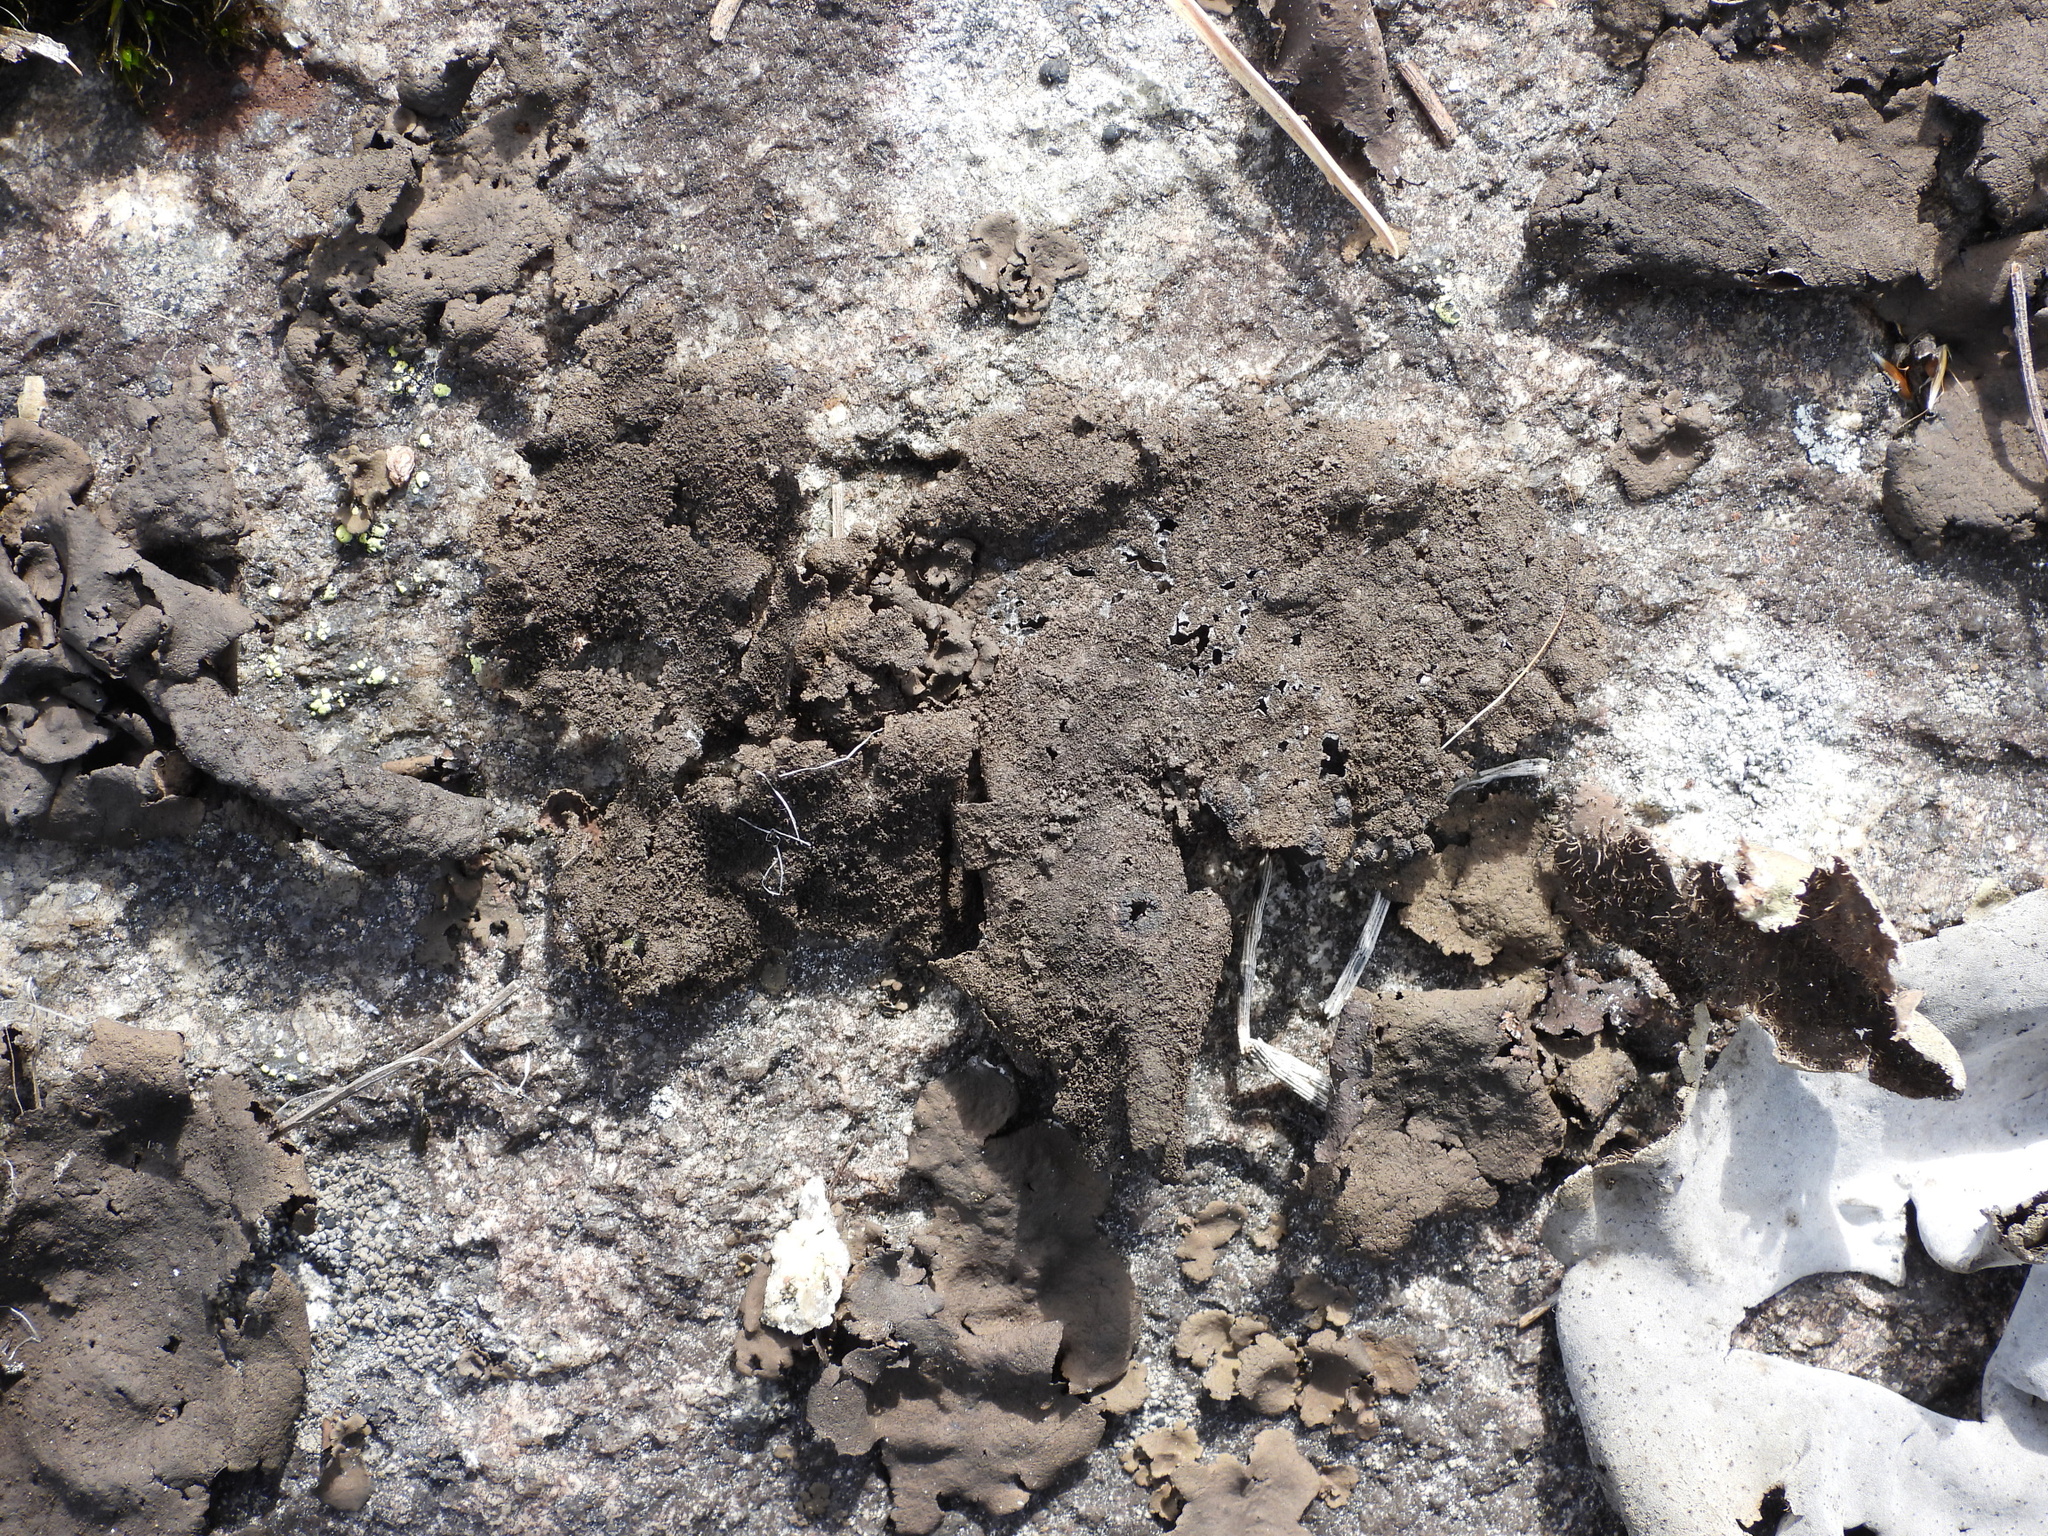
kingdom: Fungi
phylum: Ascomycota
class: Lecanoromycetes
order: Umbilicariales
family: Umbilicariaceae
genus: Umbilicaria
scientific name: Umbilicaria deusta
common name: Peppered rock tripe
